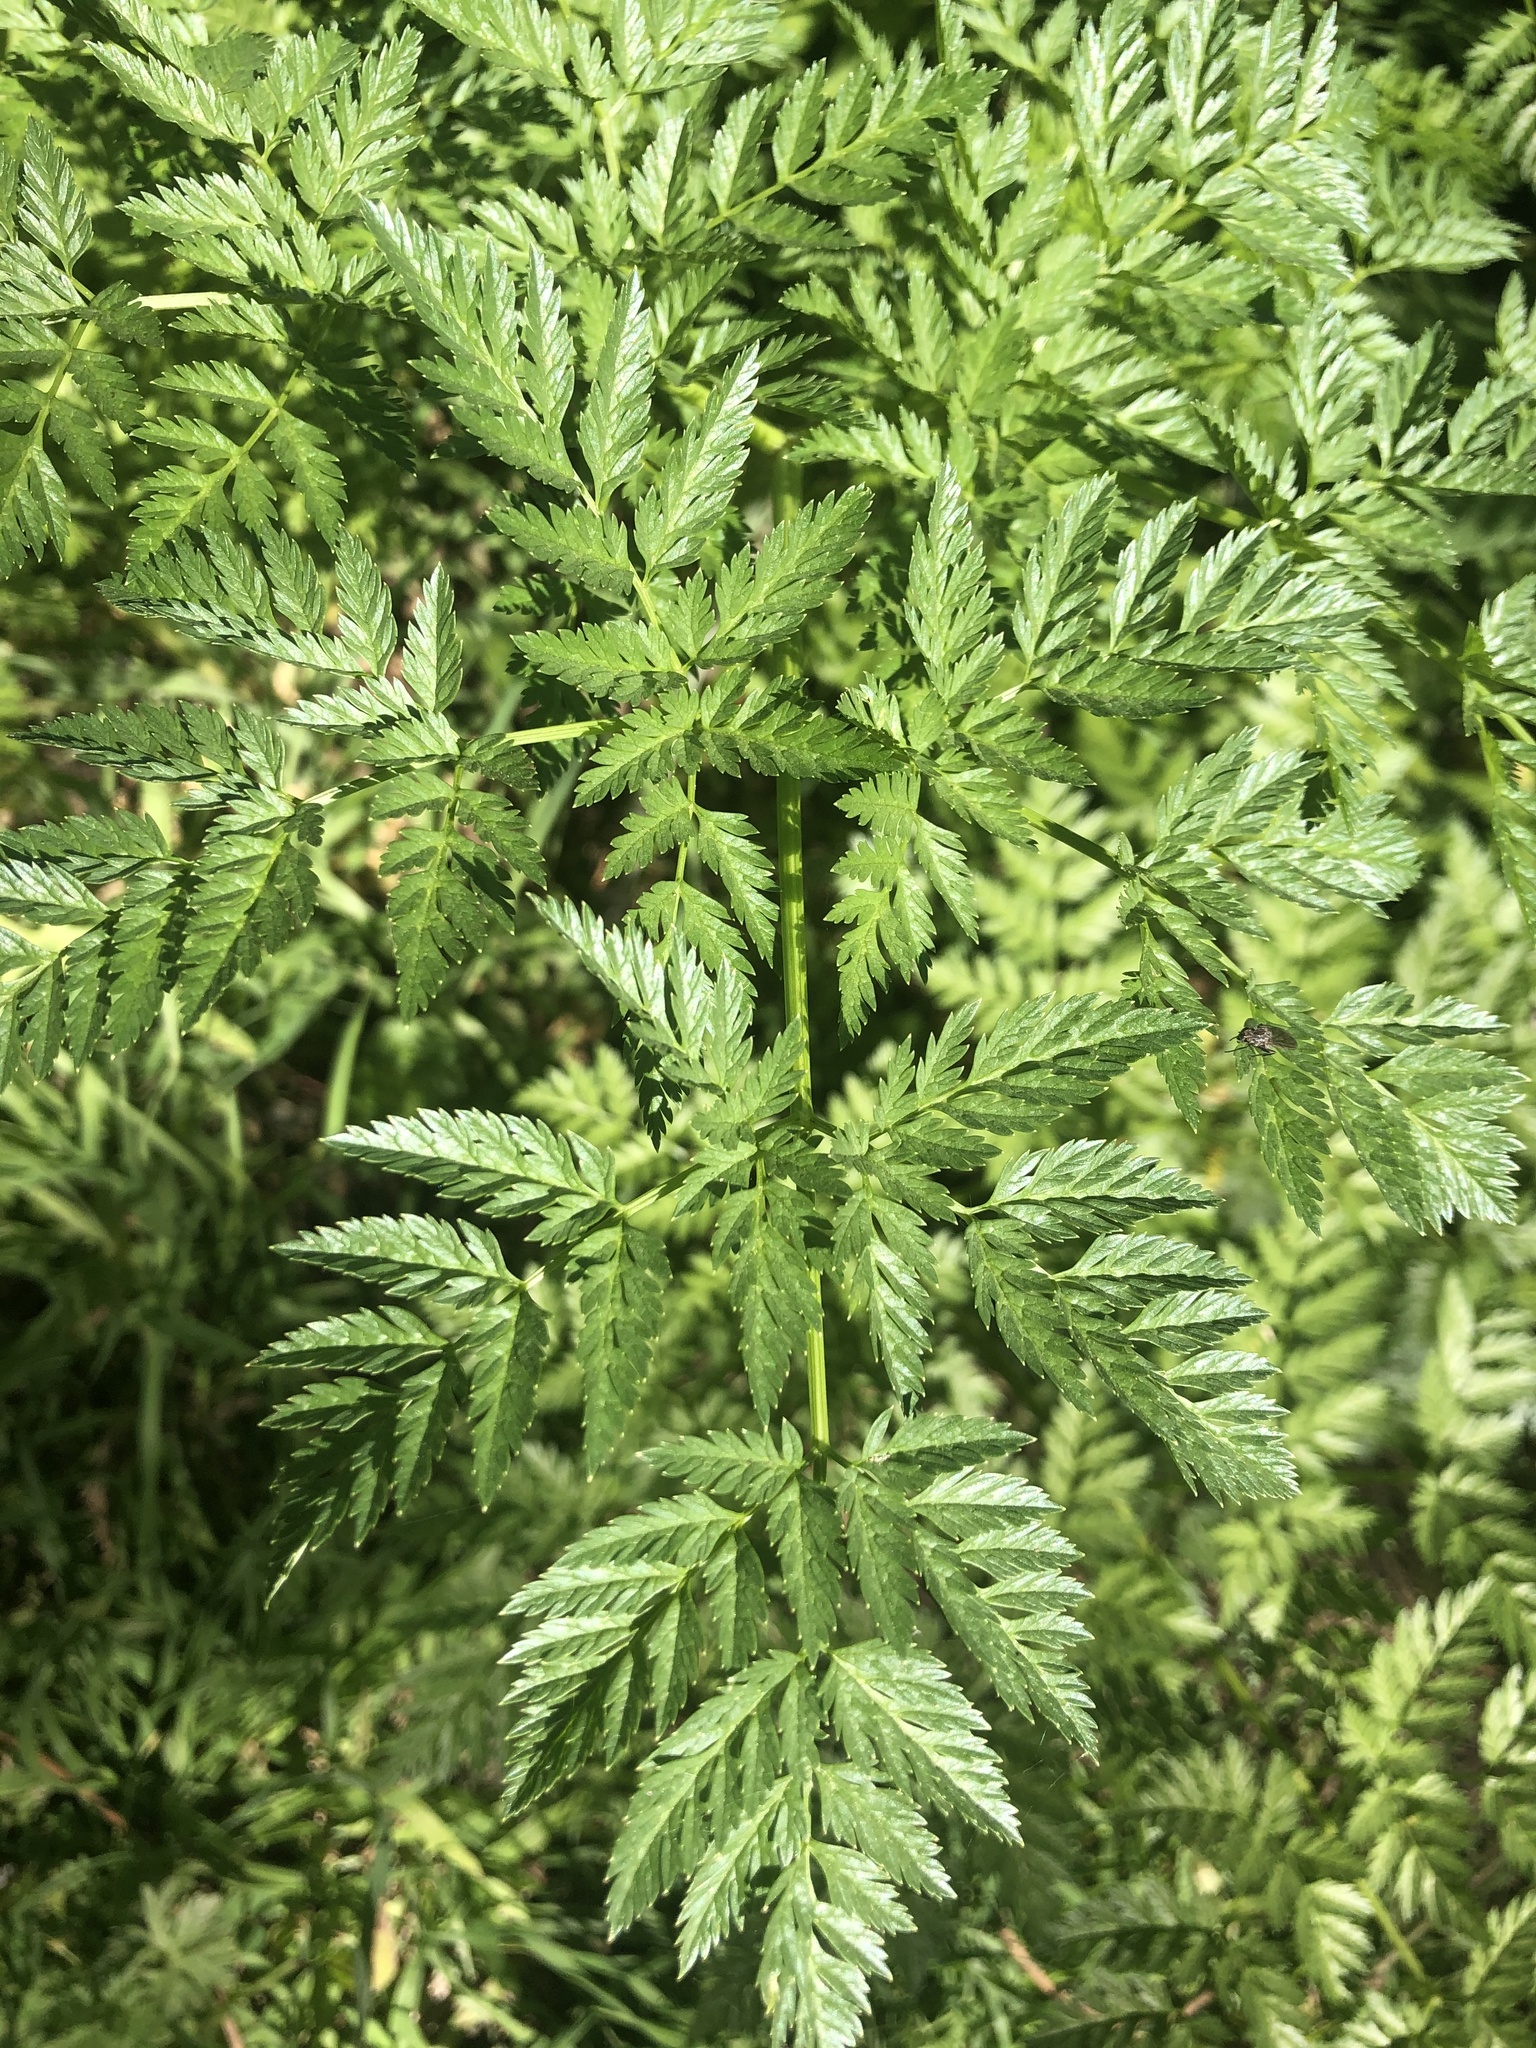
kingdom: Plantae
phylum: Tracheophyta
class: Magnoliopsida
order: Apiales
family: Apiaceae
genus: Conium
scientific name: Conium maculatum
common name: Hemlock
